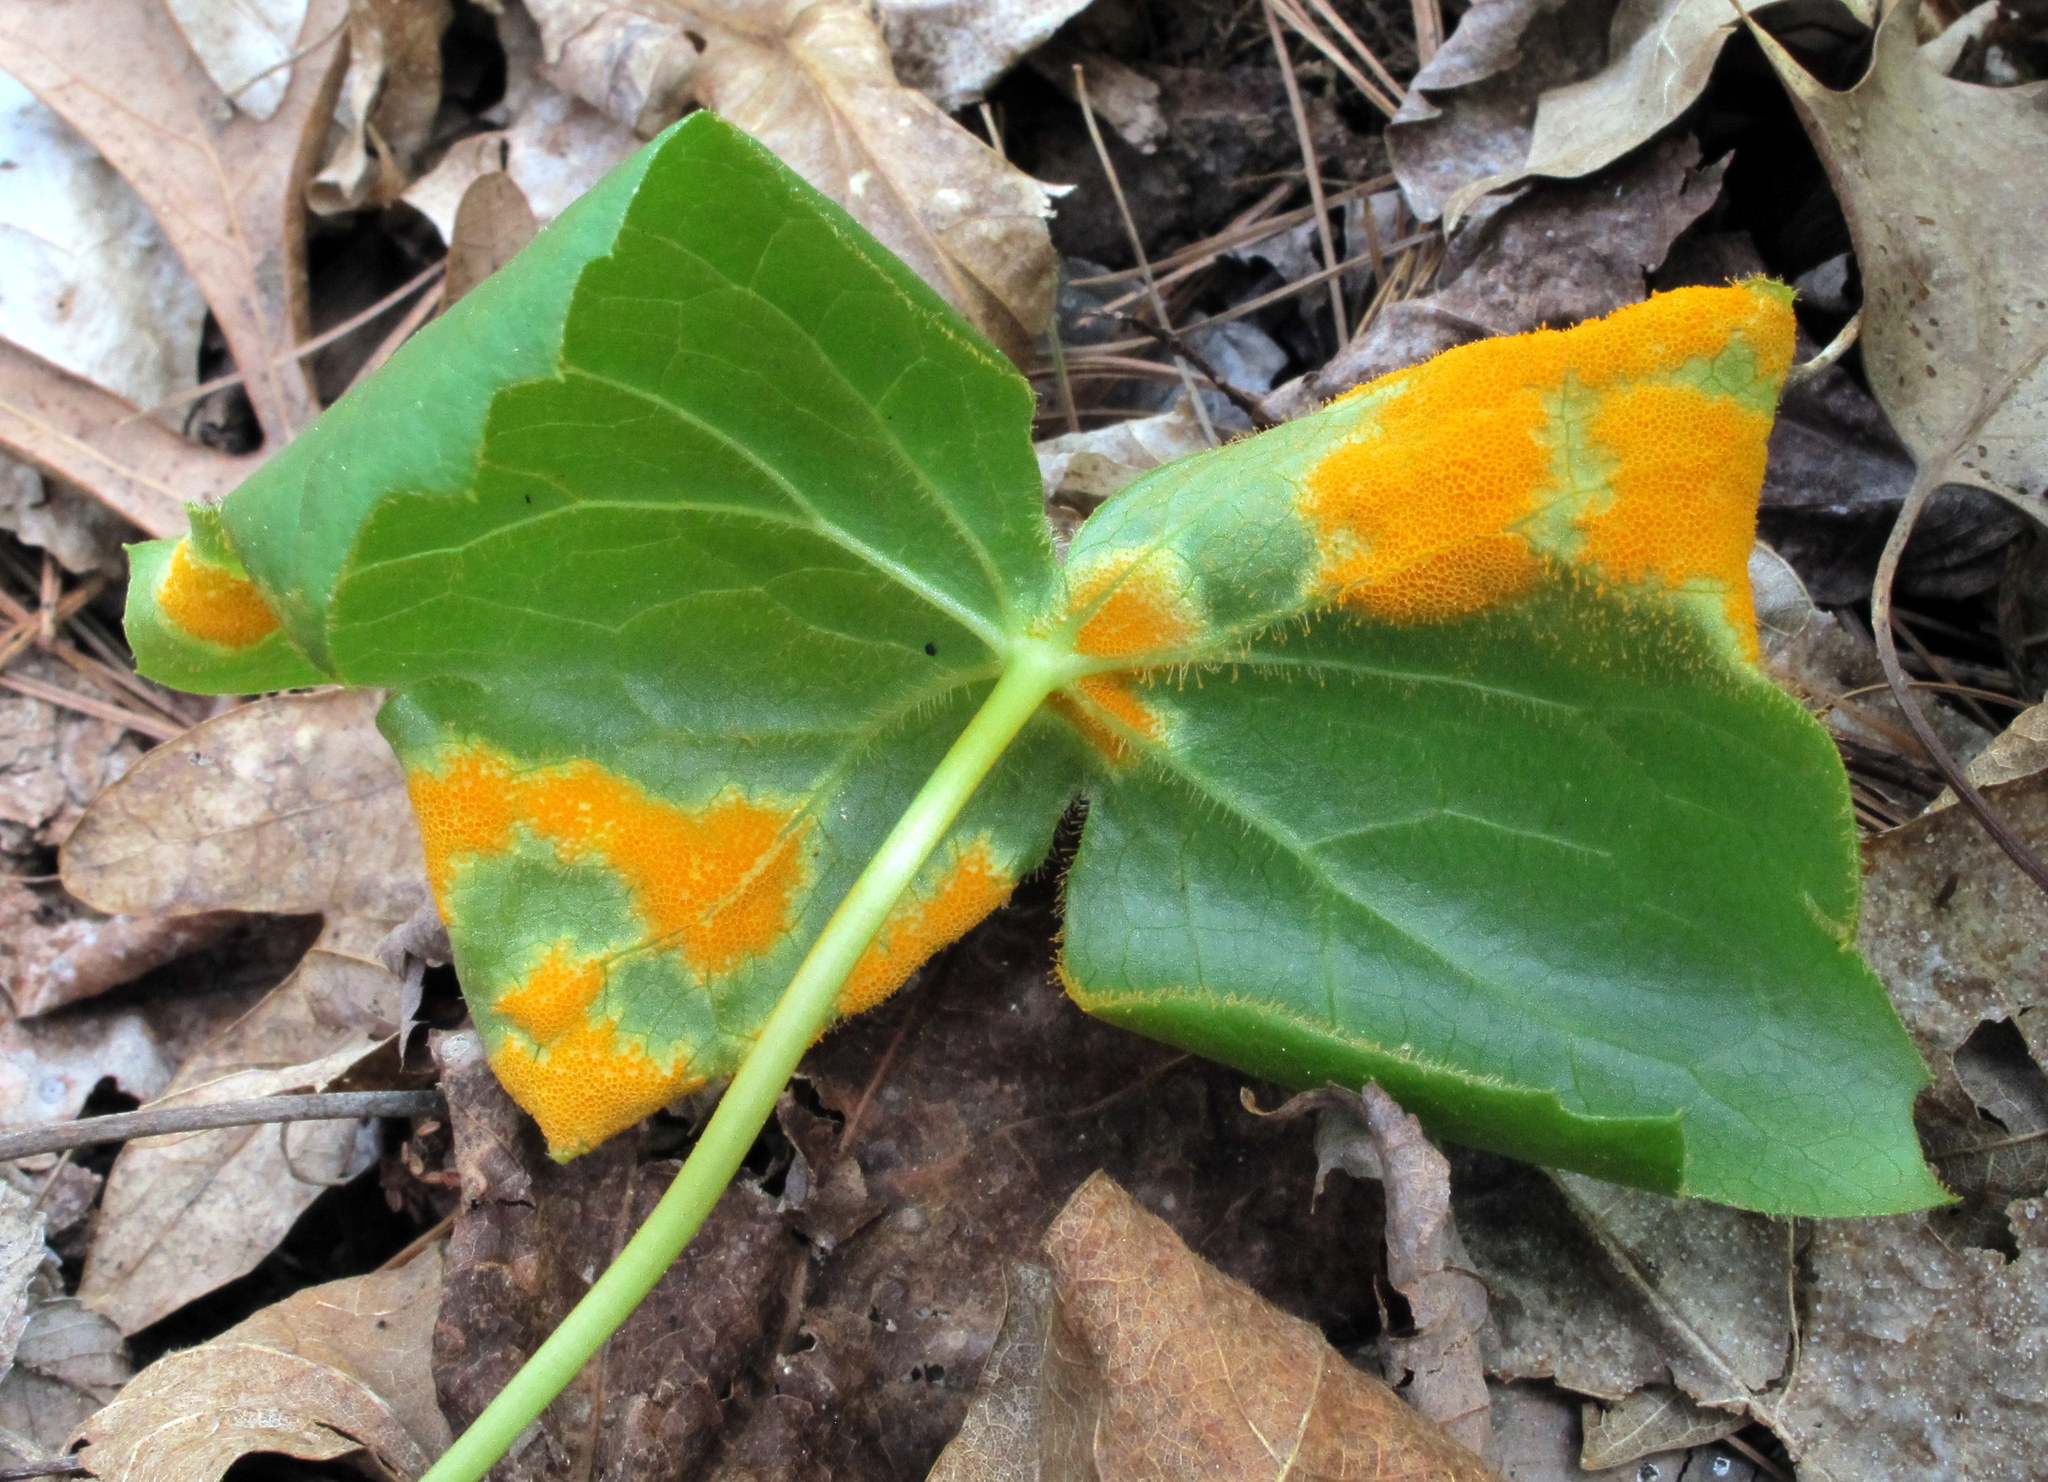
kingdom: Fungi
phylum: Basidiomycota
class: Pucciniomycetes
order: Pucciniales
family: Pucciniaceae
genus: Puccinia
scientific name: Puccinia podophylli
